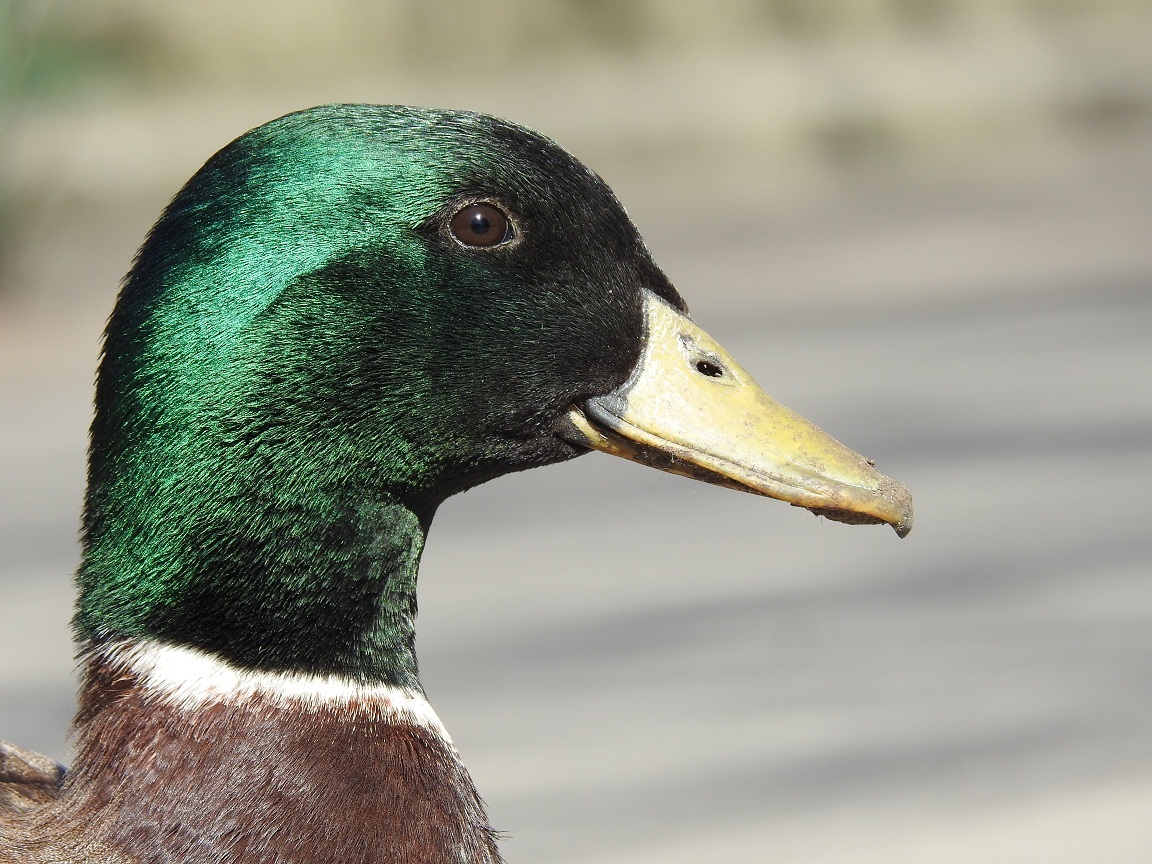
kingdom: Animalia
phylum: Chordata
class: Aves
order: Anseriformes
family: Anatidae
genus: Anas
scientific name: Anas platyrhynchos
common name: Mallard
